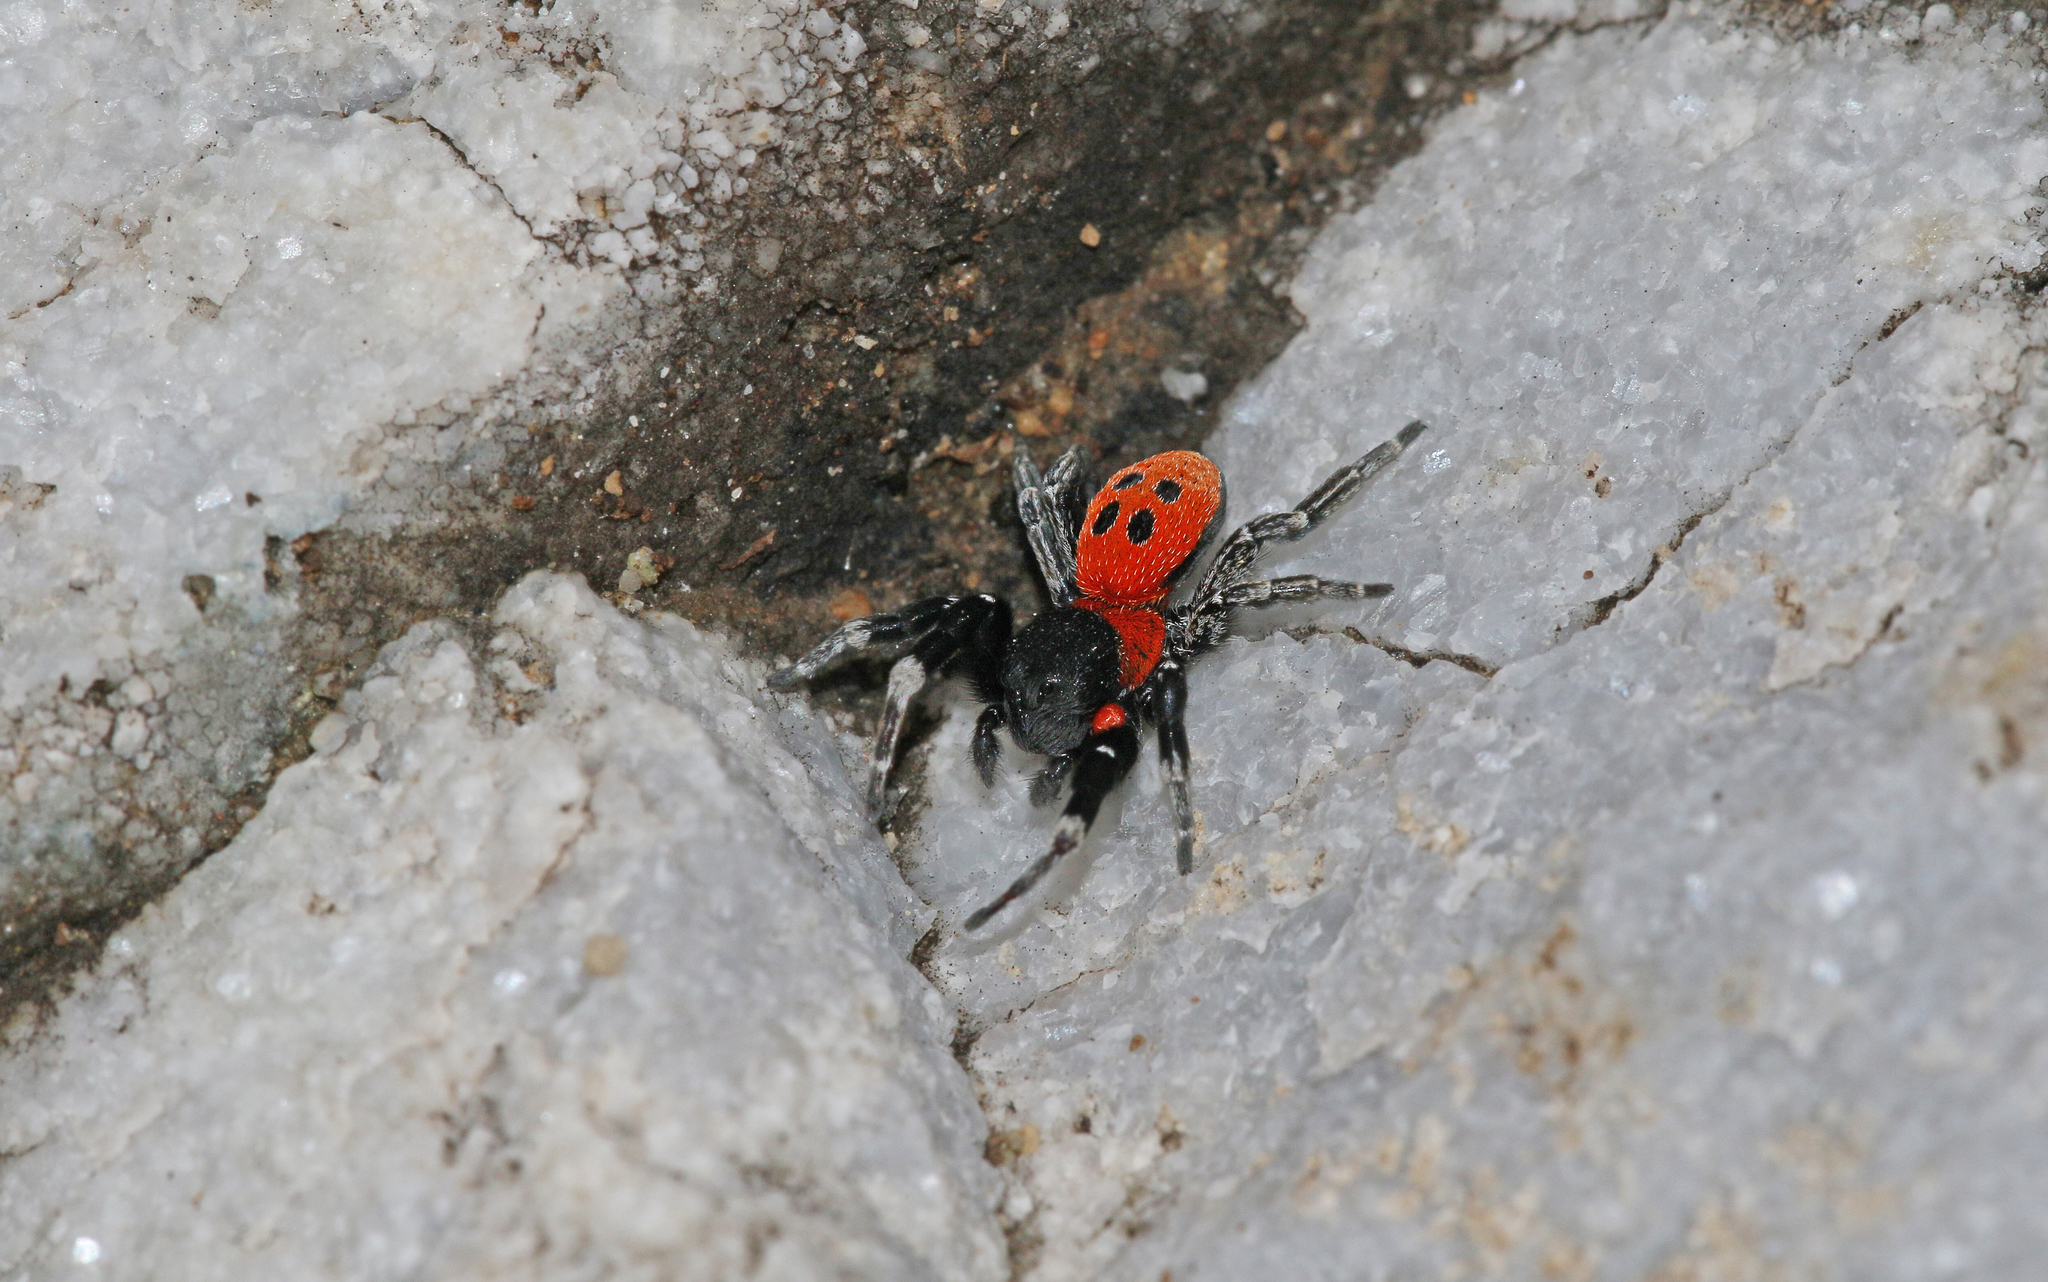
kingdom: Animalia
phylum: Arthropoda
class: Arachnida
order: Araneae
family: Eresidae
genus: Eresus
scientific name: Eresus
